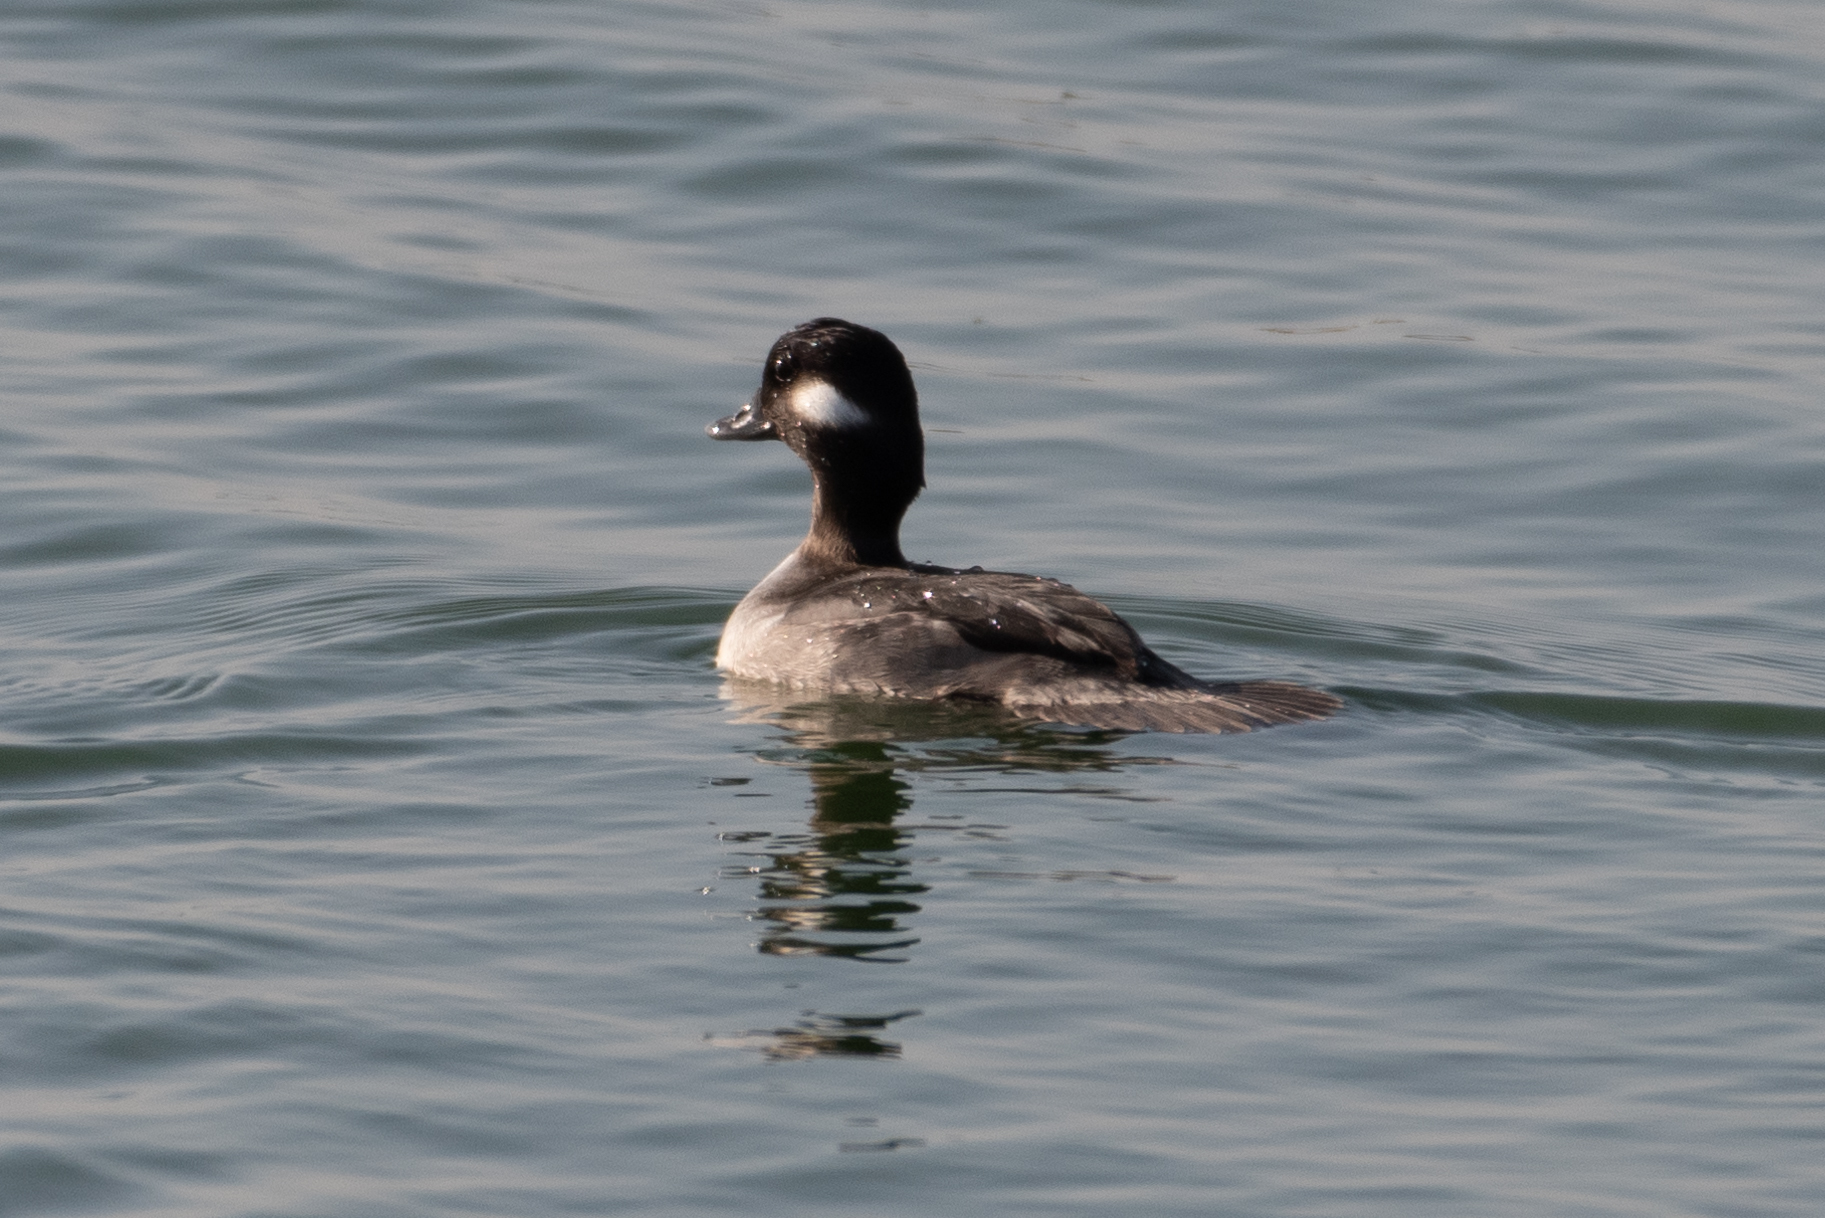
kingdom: Animalia
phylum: Chordata
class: Aves
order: Anseriformes
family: Anatidae
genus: Bucephala
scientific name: Bucephala albeola
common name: Bufflehead
